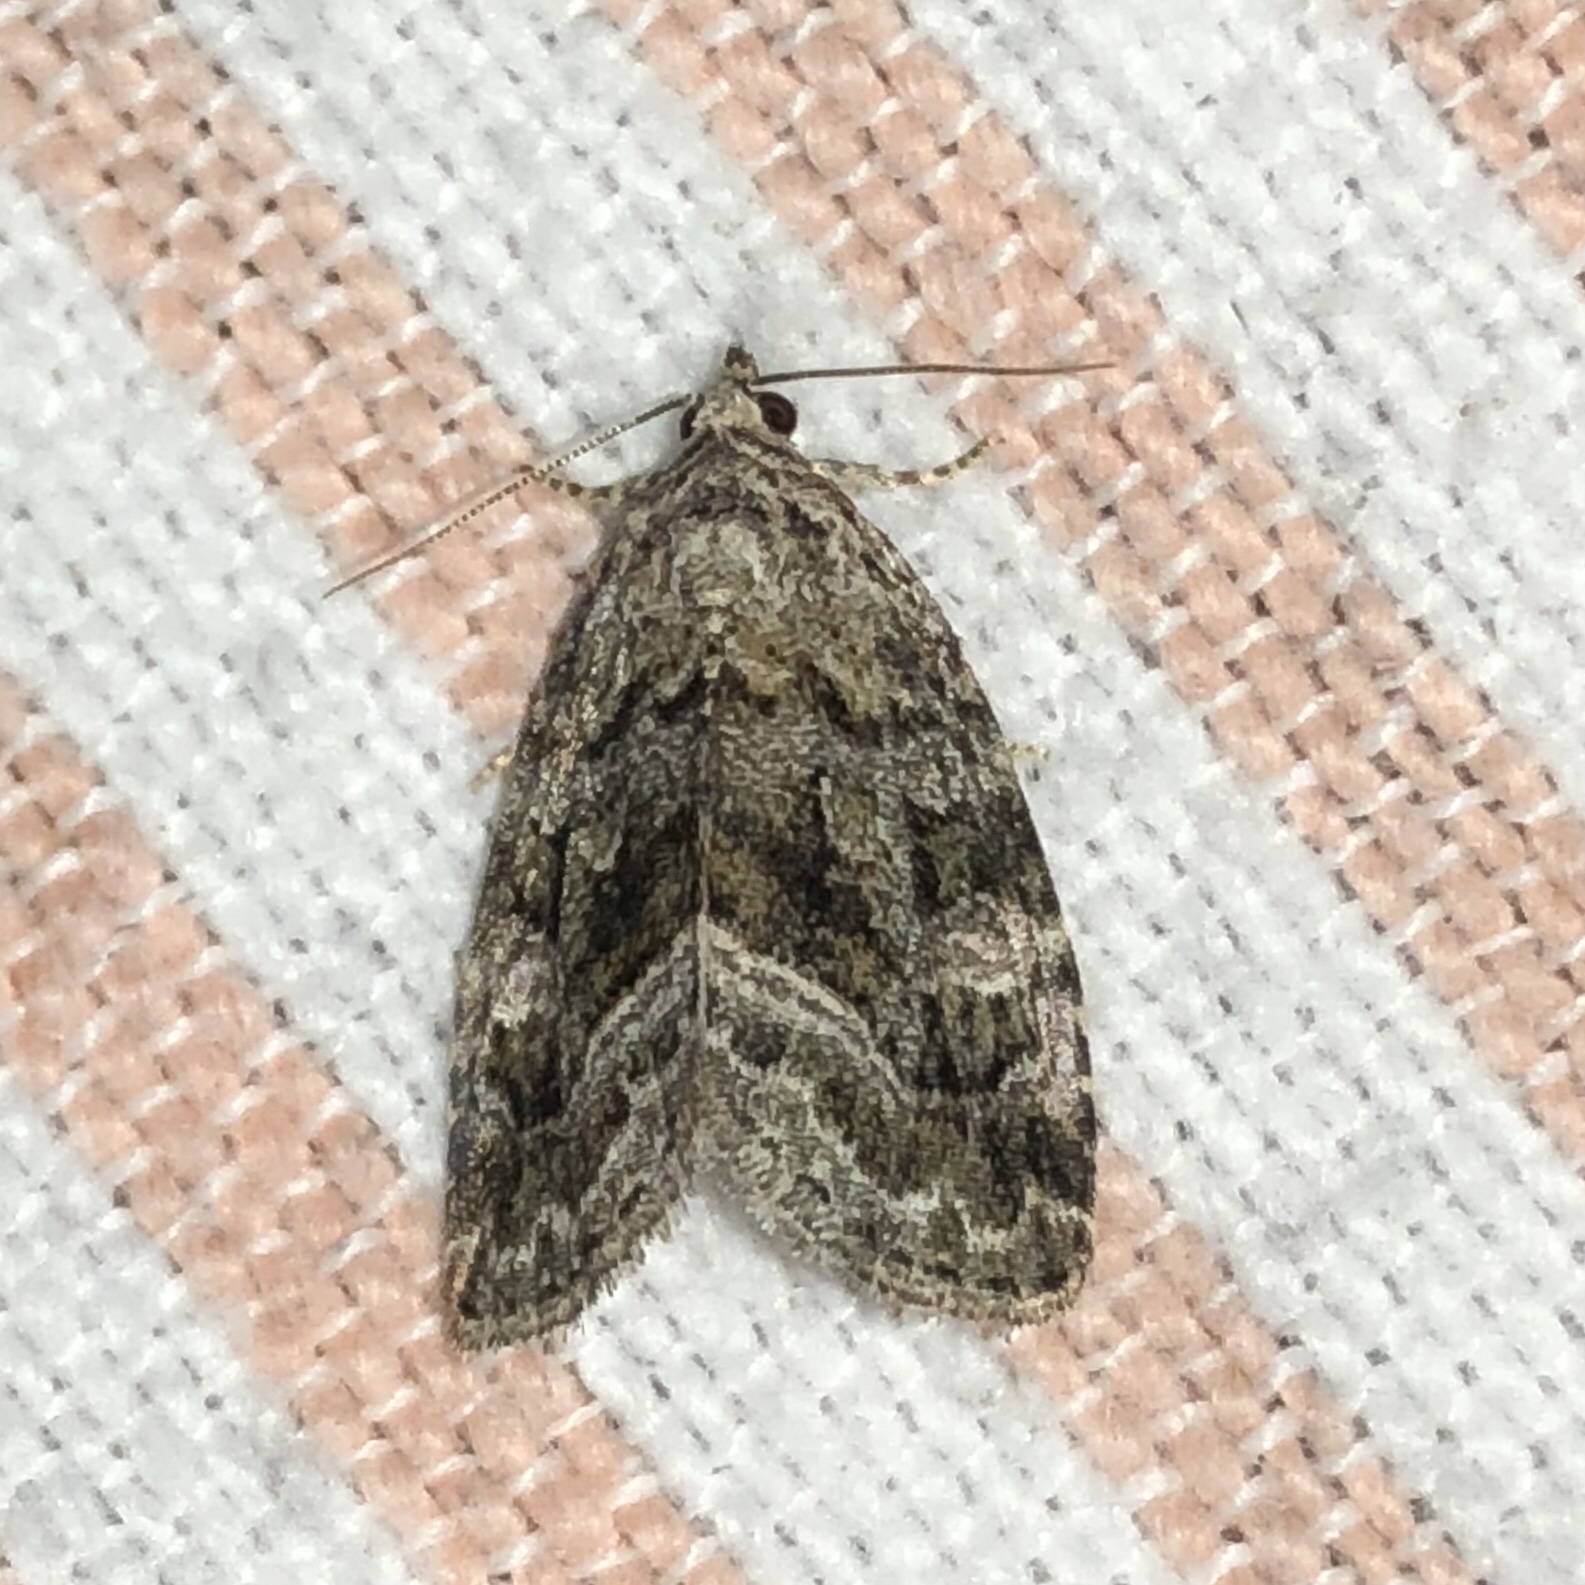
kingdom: Animalia
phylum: Arthropoda
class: Insecta
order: Lepidoptera
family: Noctuidae
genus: Protodeltote
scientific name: Protodeltote muscosula
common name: Large mossy glyph
